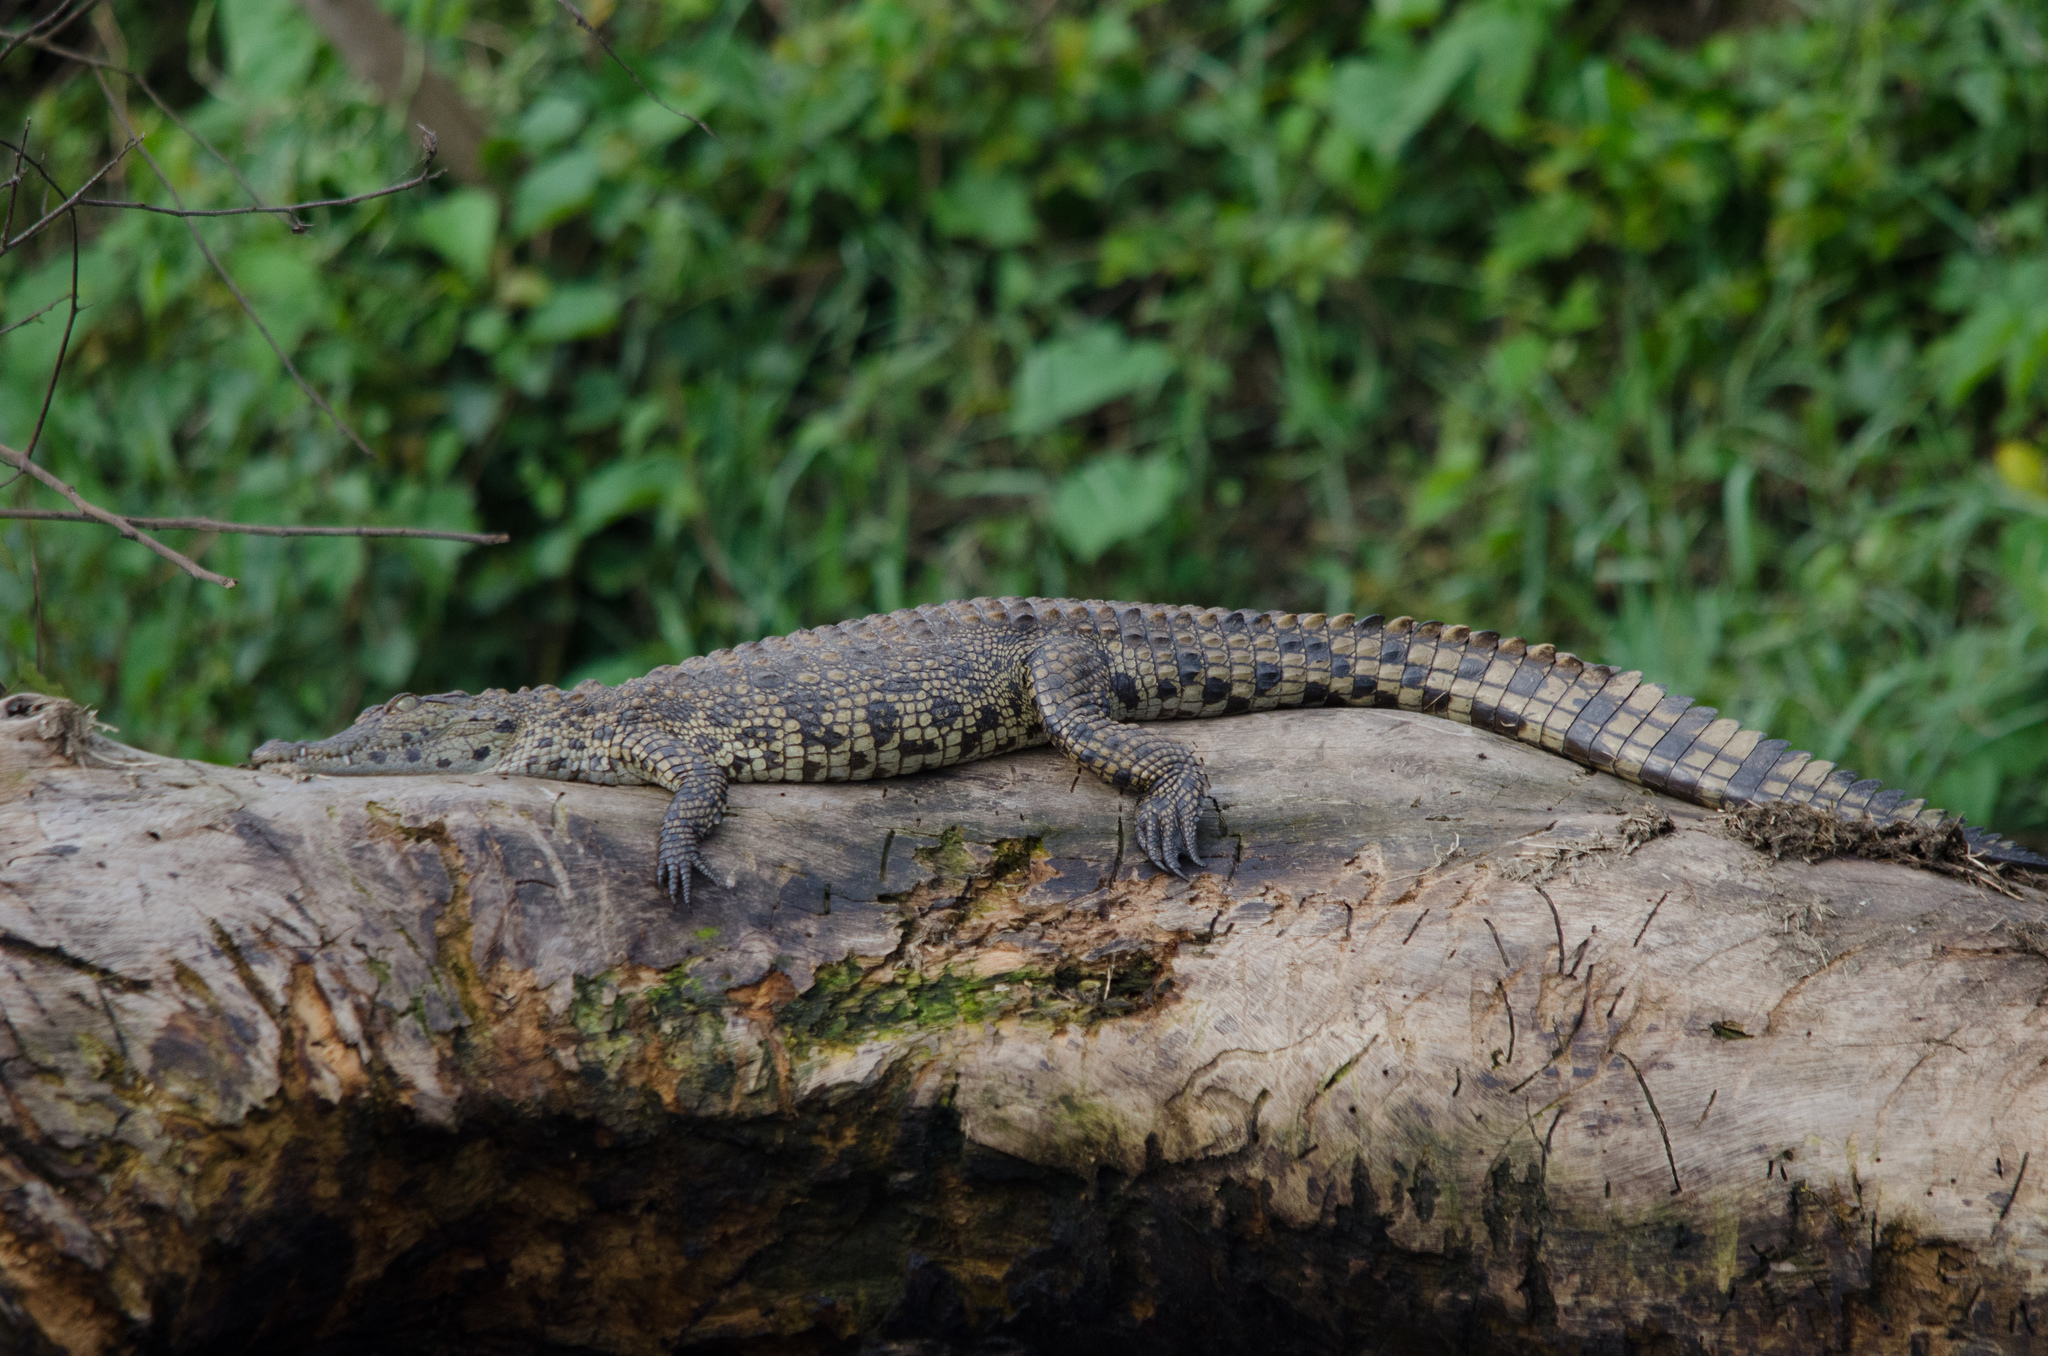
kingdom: Animalia
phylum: Chordata
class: Crocodylia
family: Crocodylidae
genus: Crocodylus
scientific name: Crocodylus niloticus
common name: Nile crocodile
